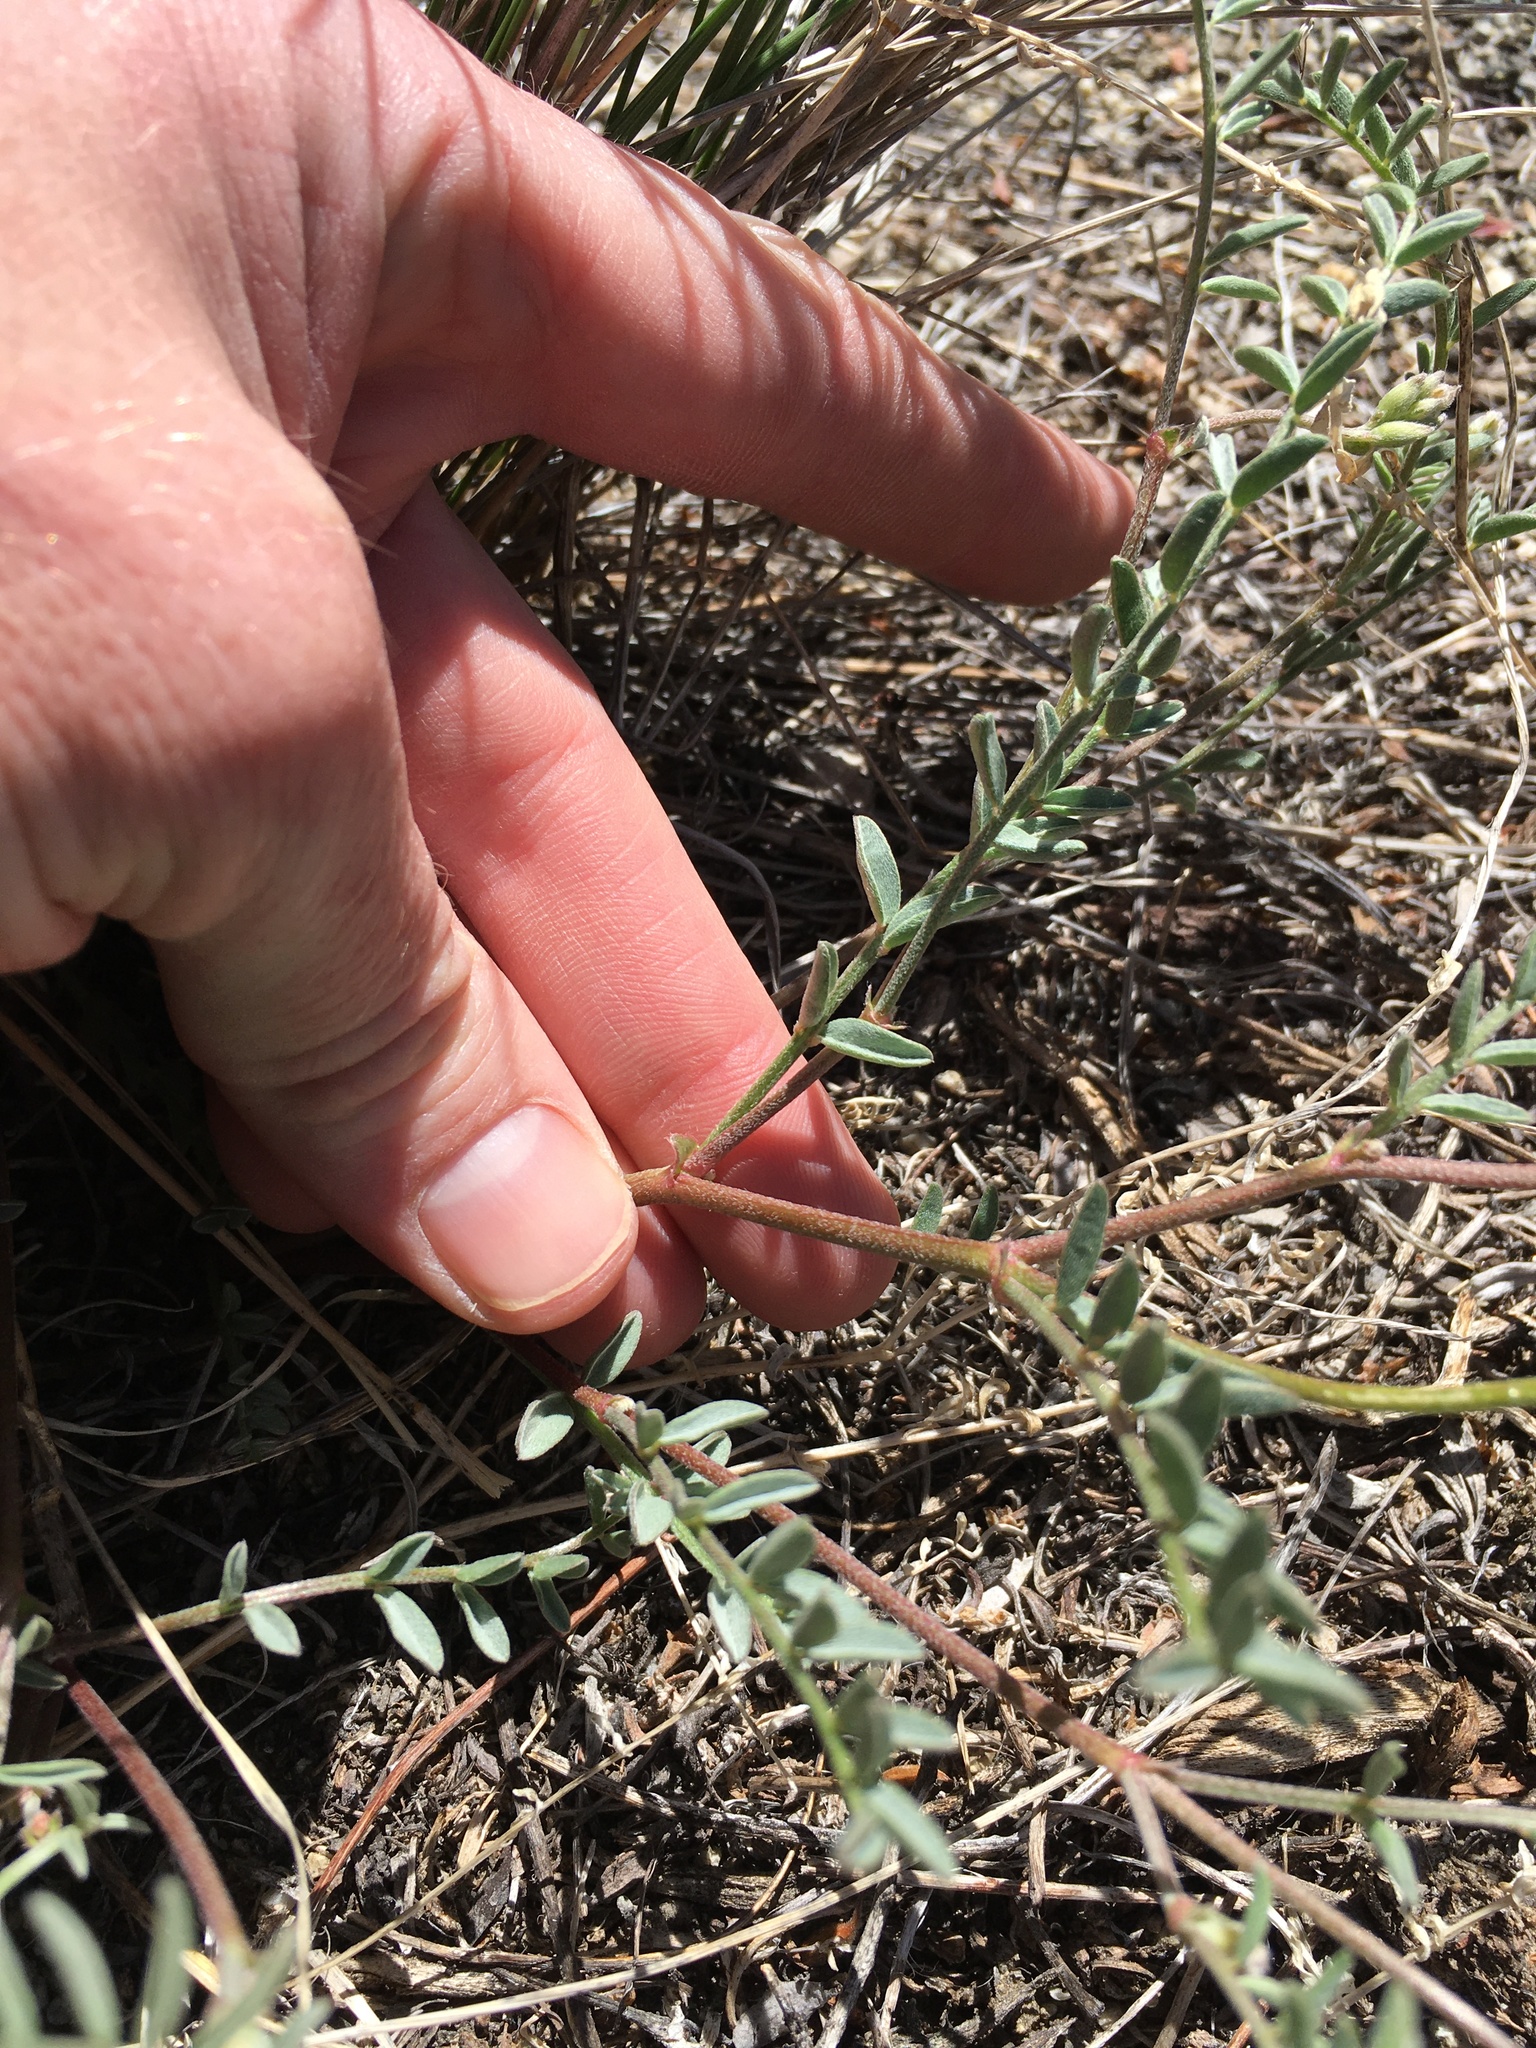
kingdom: Plantae
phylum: Tracheophyta
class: Magnoliopsida
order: Fabales
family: Fabaceae
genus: Astragalus
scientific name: Astragalus whitneyi
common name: Balloonpod milkvetch
